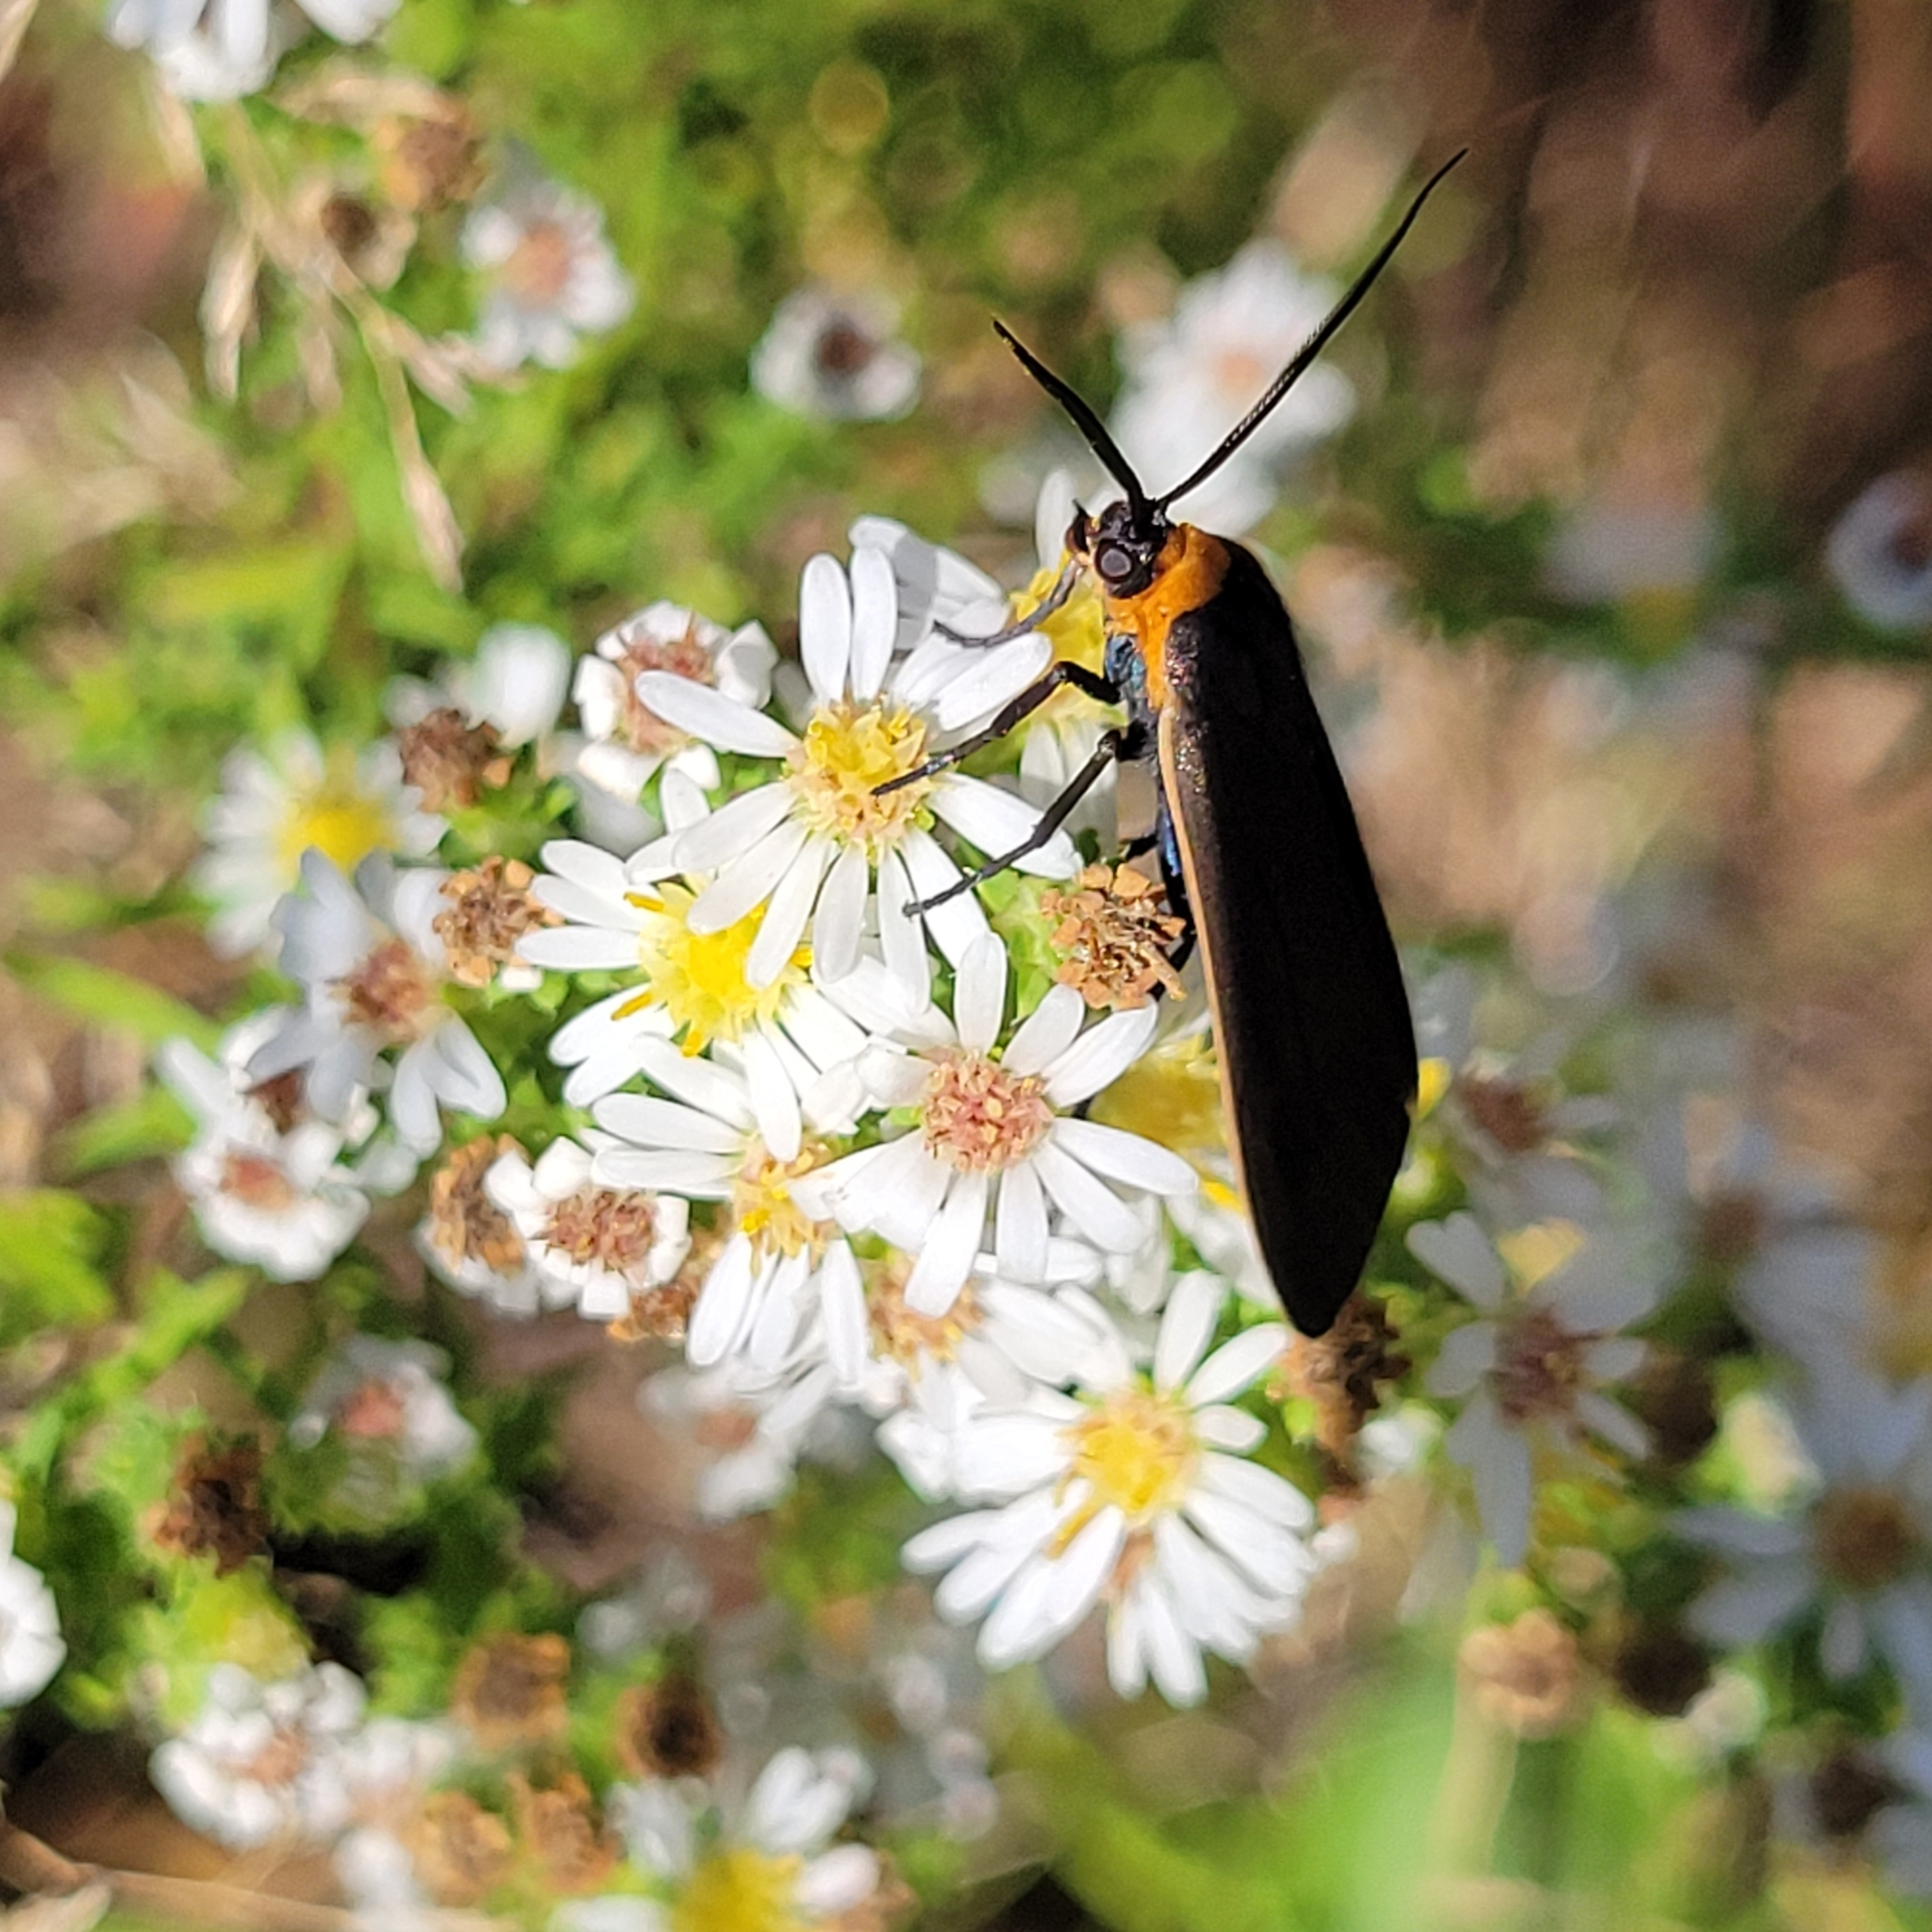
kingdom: Animalia
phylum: Arthropoda
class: Insecta
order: Lepidoptera
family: Erebidae
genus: Cisseps
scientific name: Cisseps fulvicollis
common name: Yellow-collared scape moth
